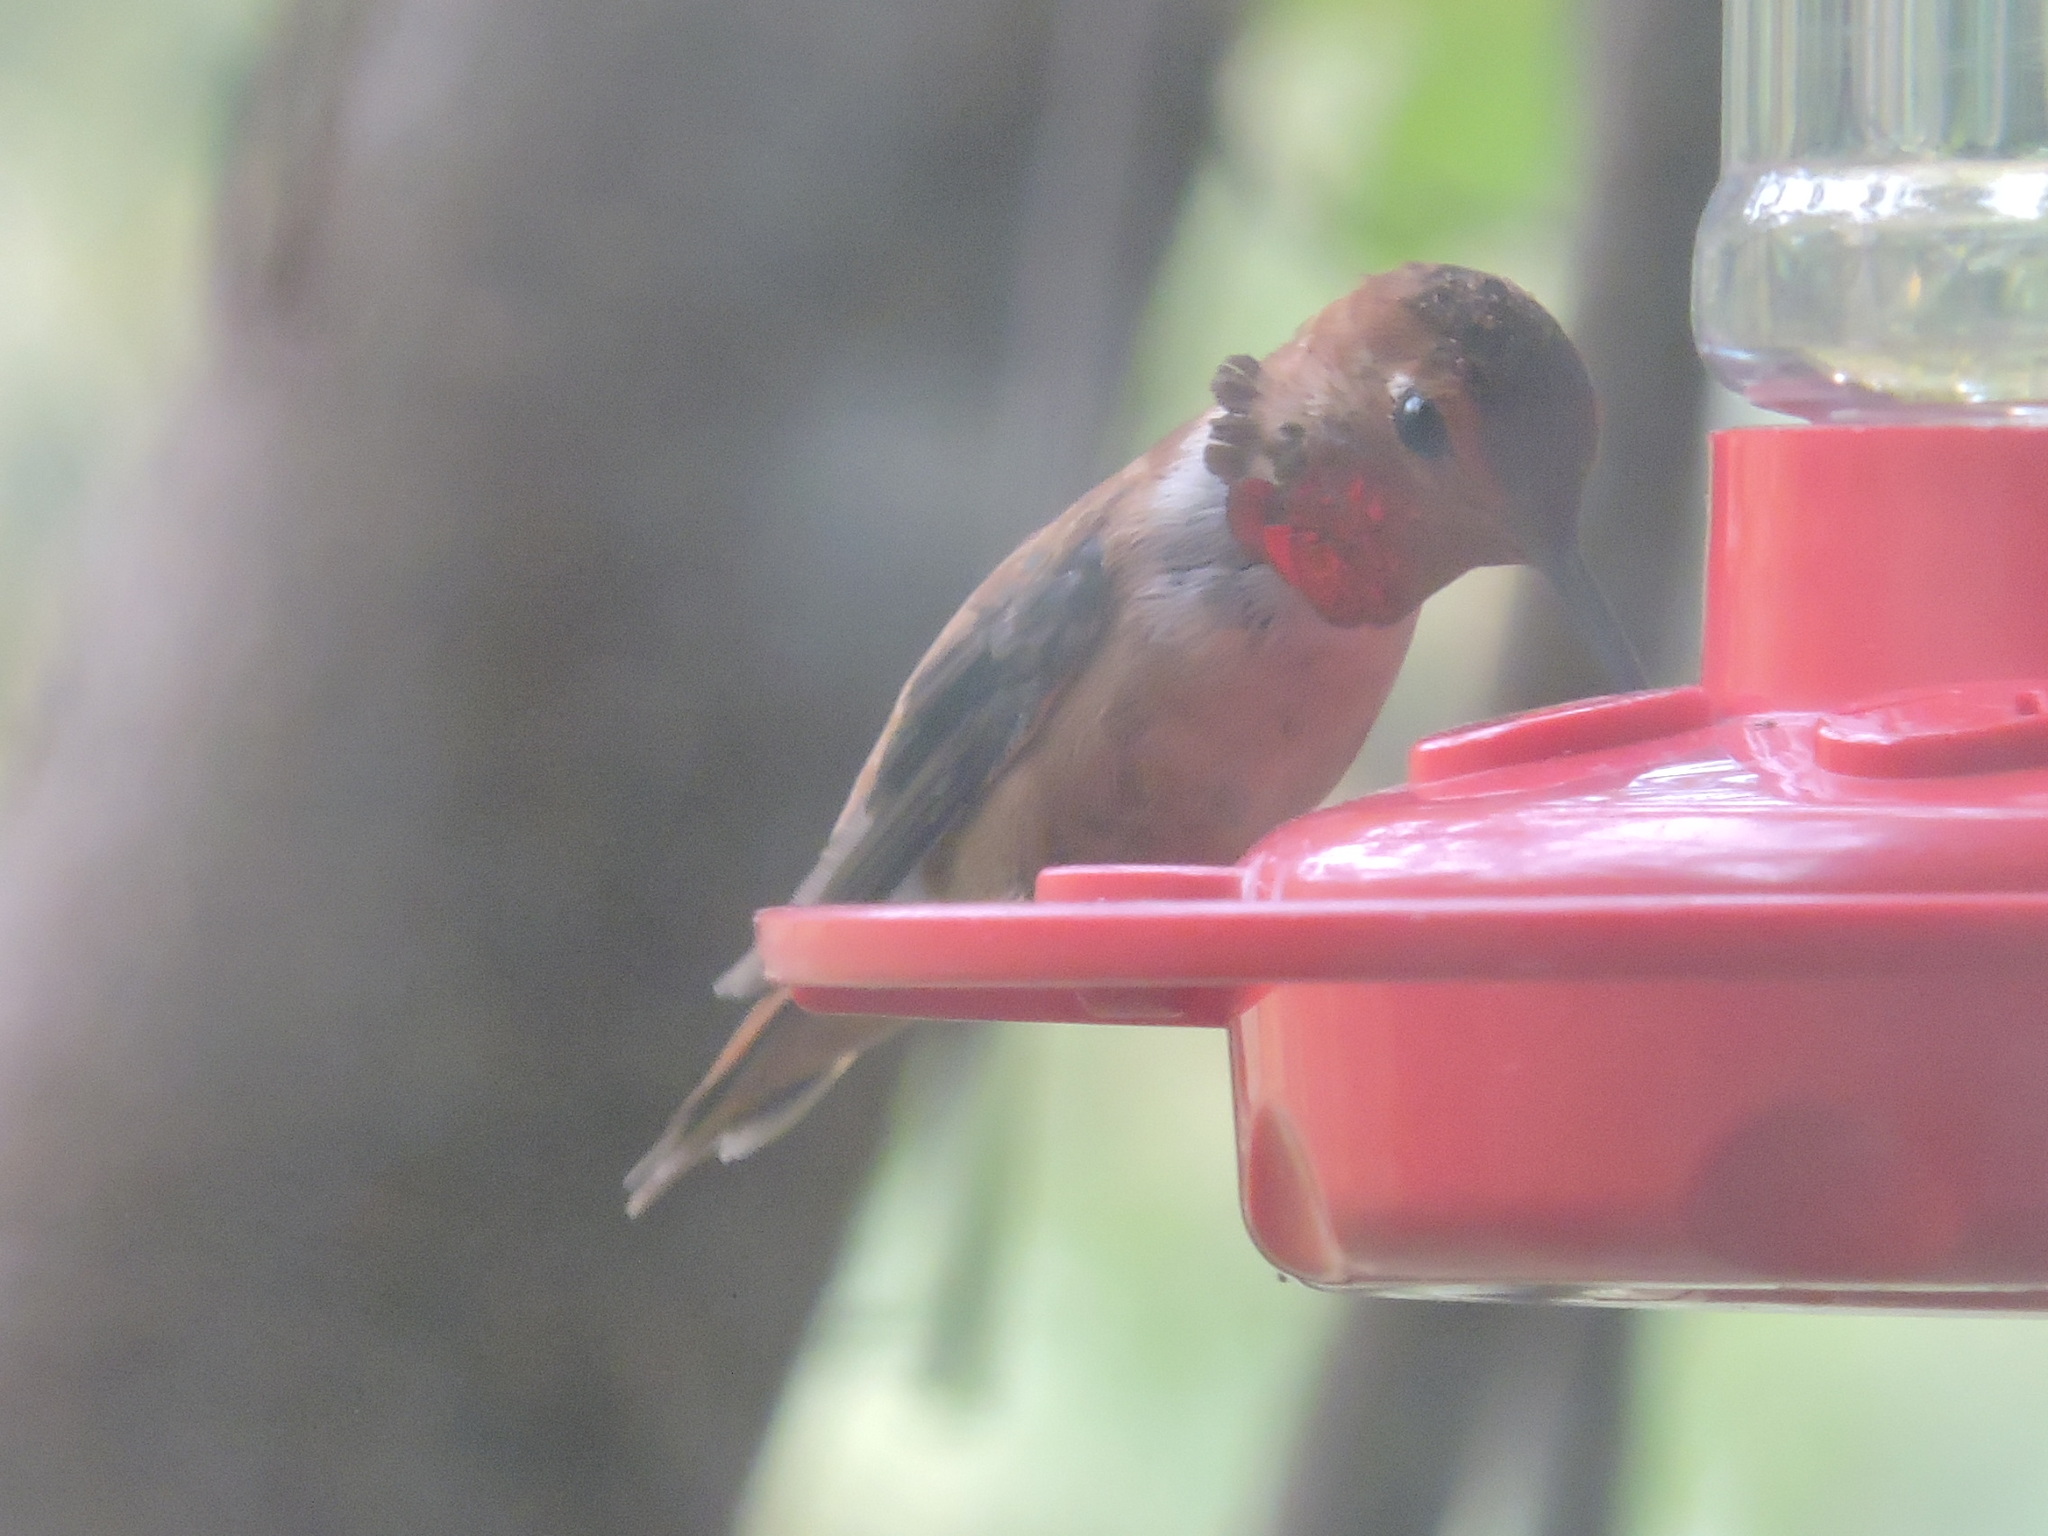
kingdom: Animalia
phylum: Chordata
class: Aves
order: Apodiformes
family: Trochilidae
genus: Selasphorus
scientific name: Selasphorus rufus
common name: Rufous hummingbird
